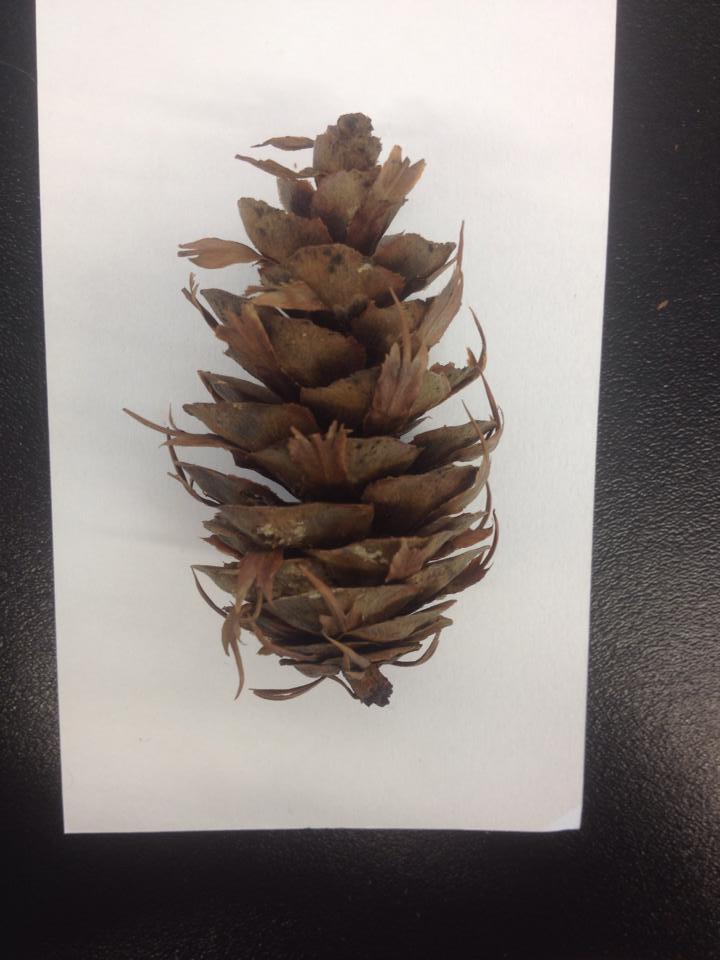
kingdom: Plantae
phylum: Tracheophyta
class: Pinopsida
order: Pinales
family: Pinaceae
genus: Pseudotsuga
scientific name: Pseudotsuga menziesii
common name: Douglas fir
